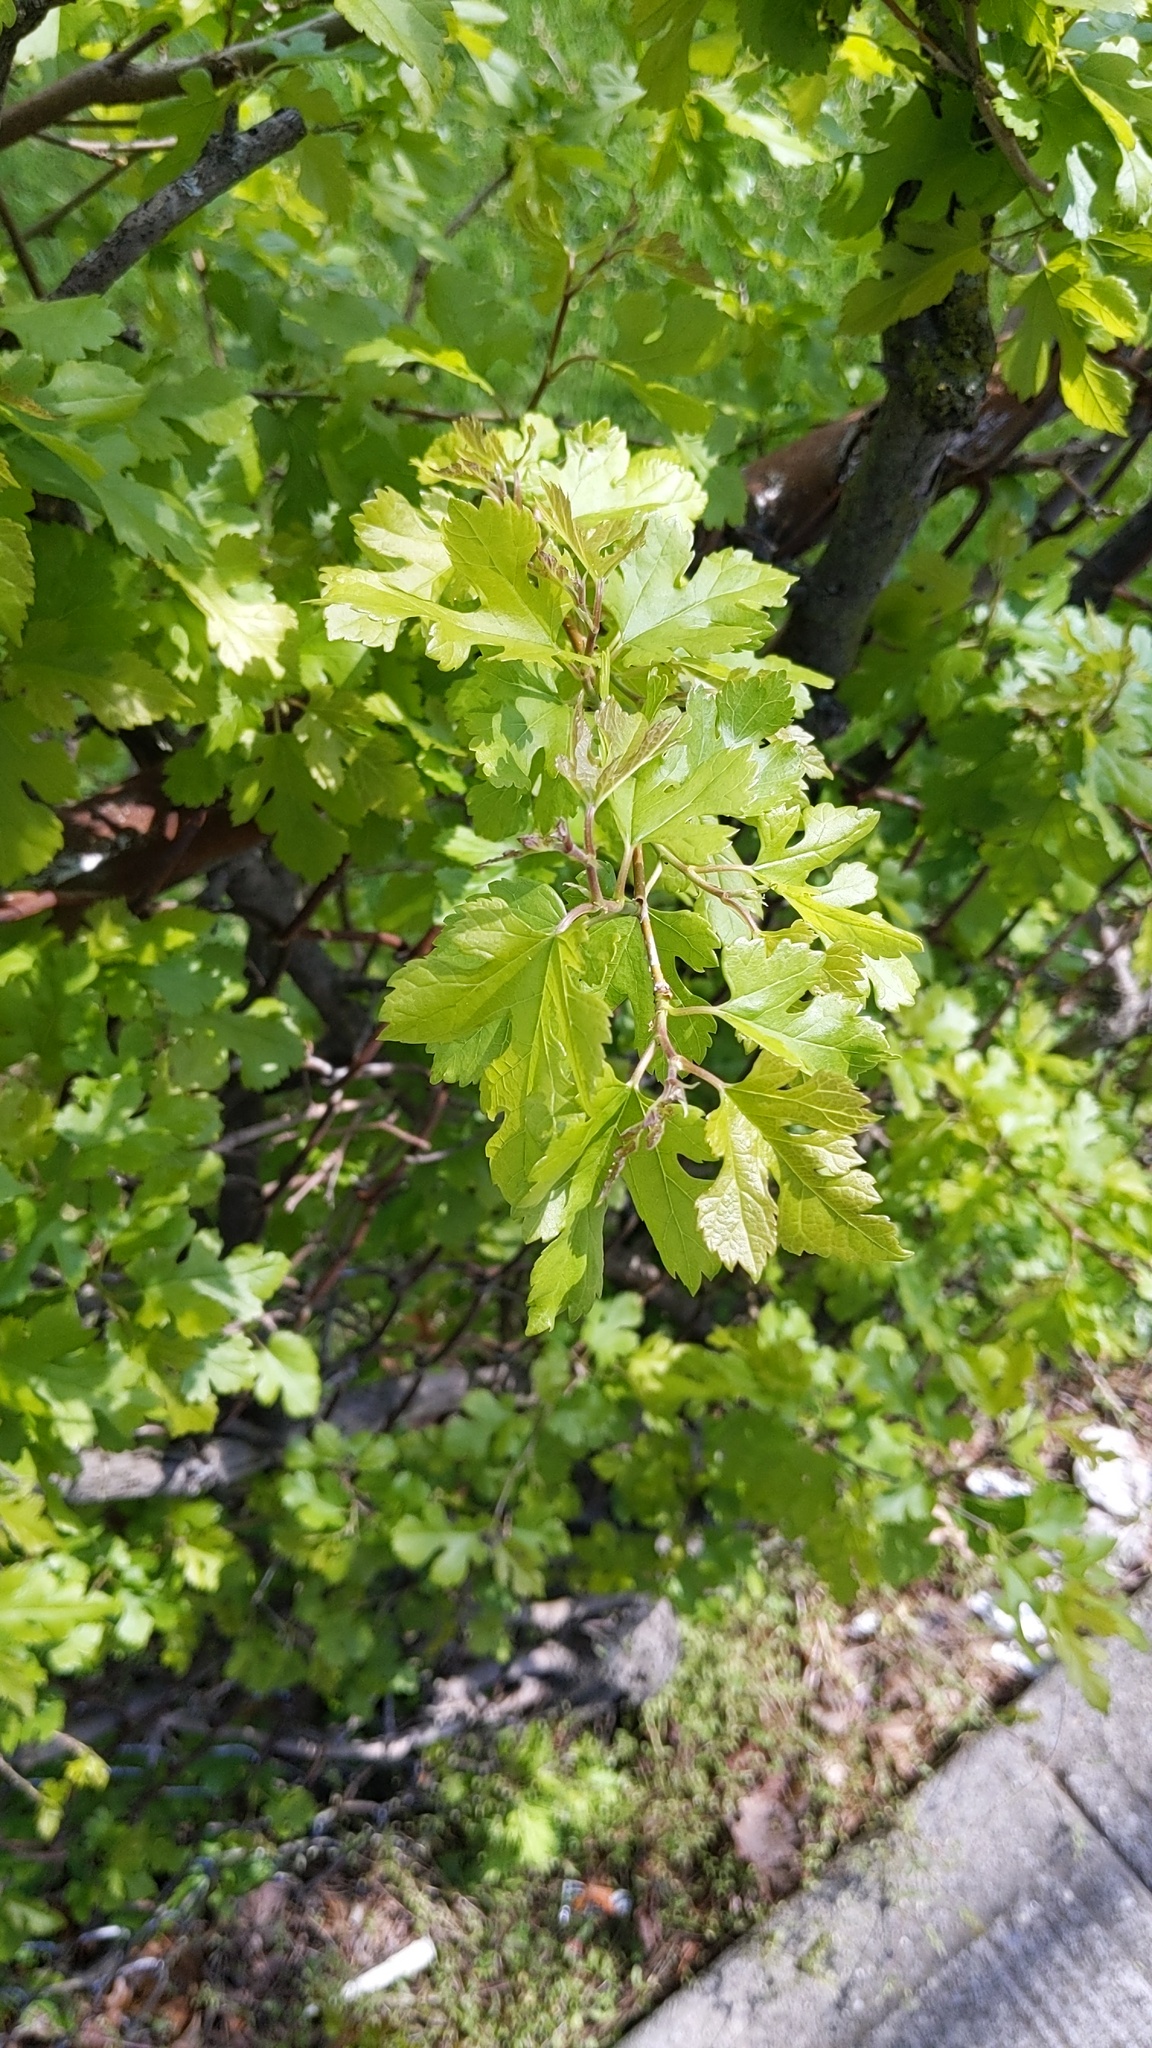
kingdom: Plantae
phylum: Tracheophyta
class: Magnoliopsida
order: Rosales
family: Moraceae
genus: Morus
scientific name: Morus alba
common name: White mulberry
